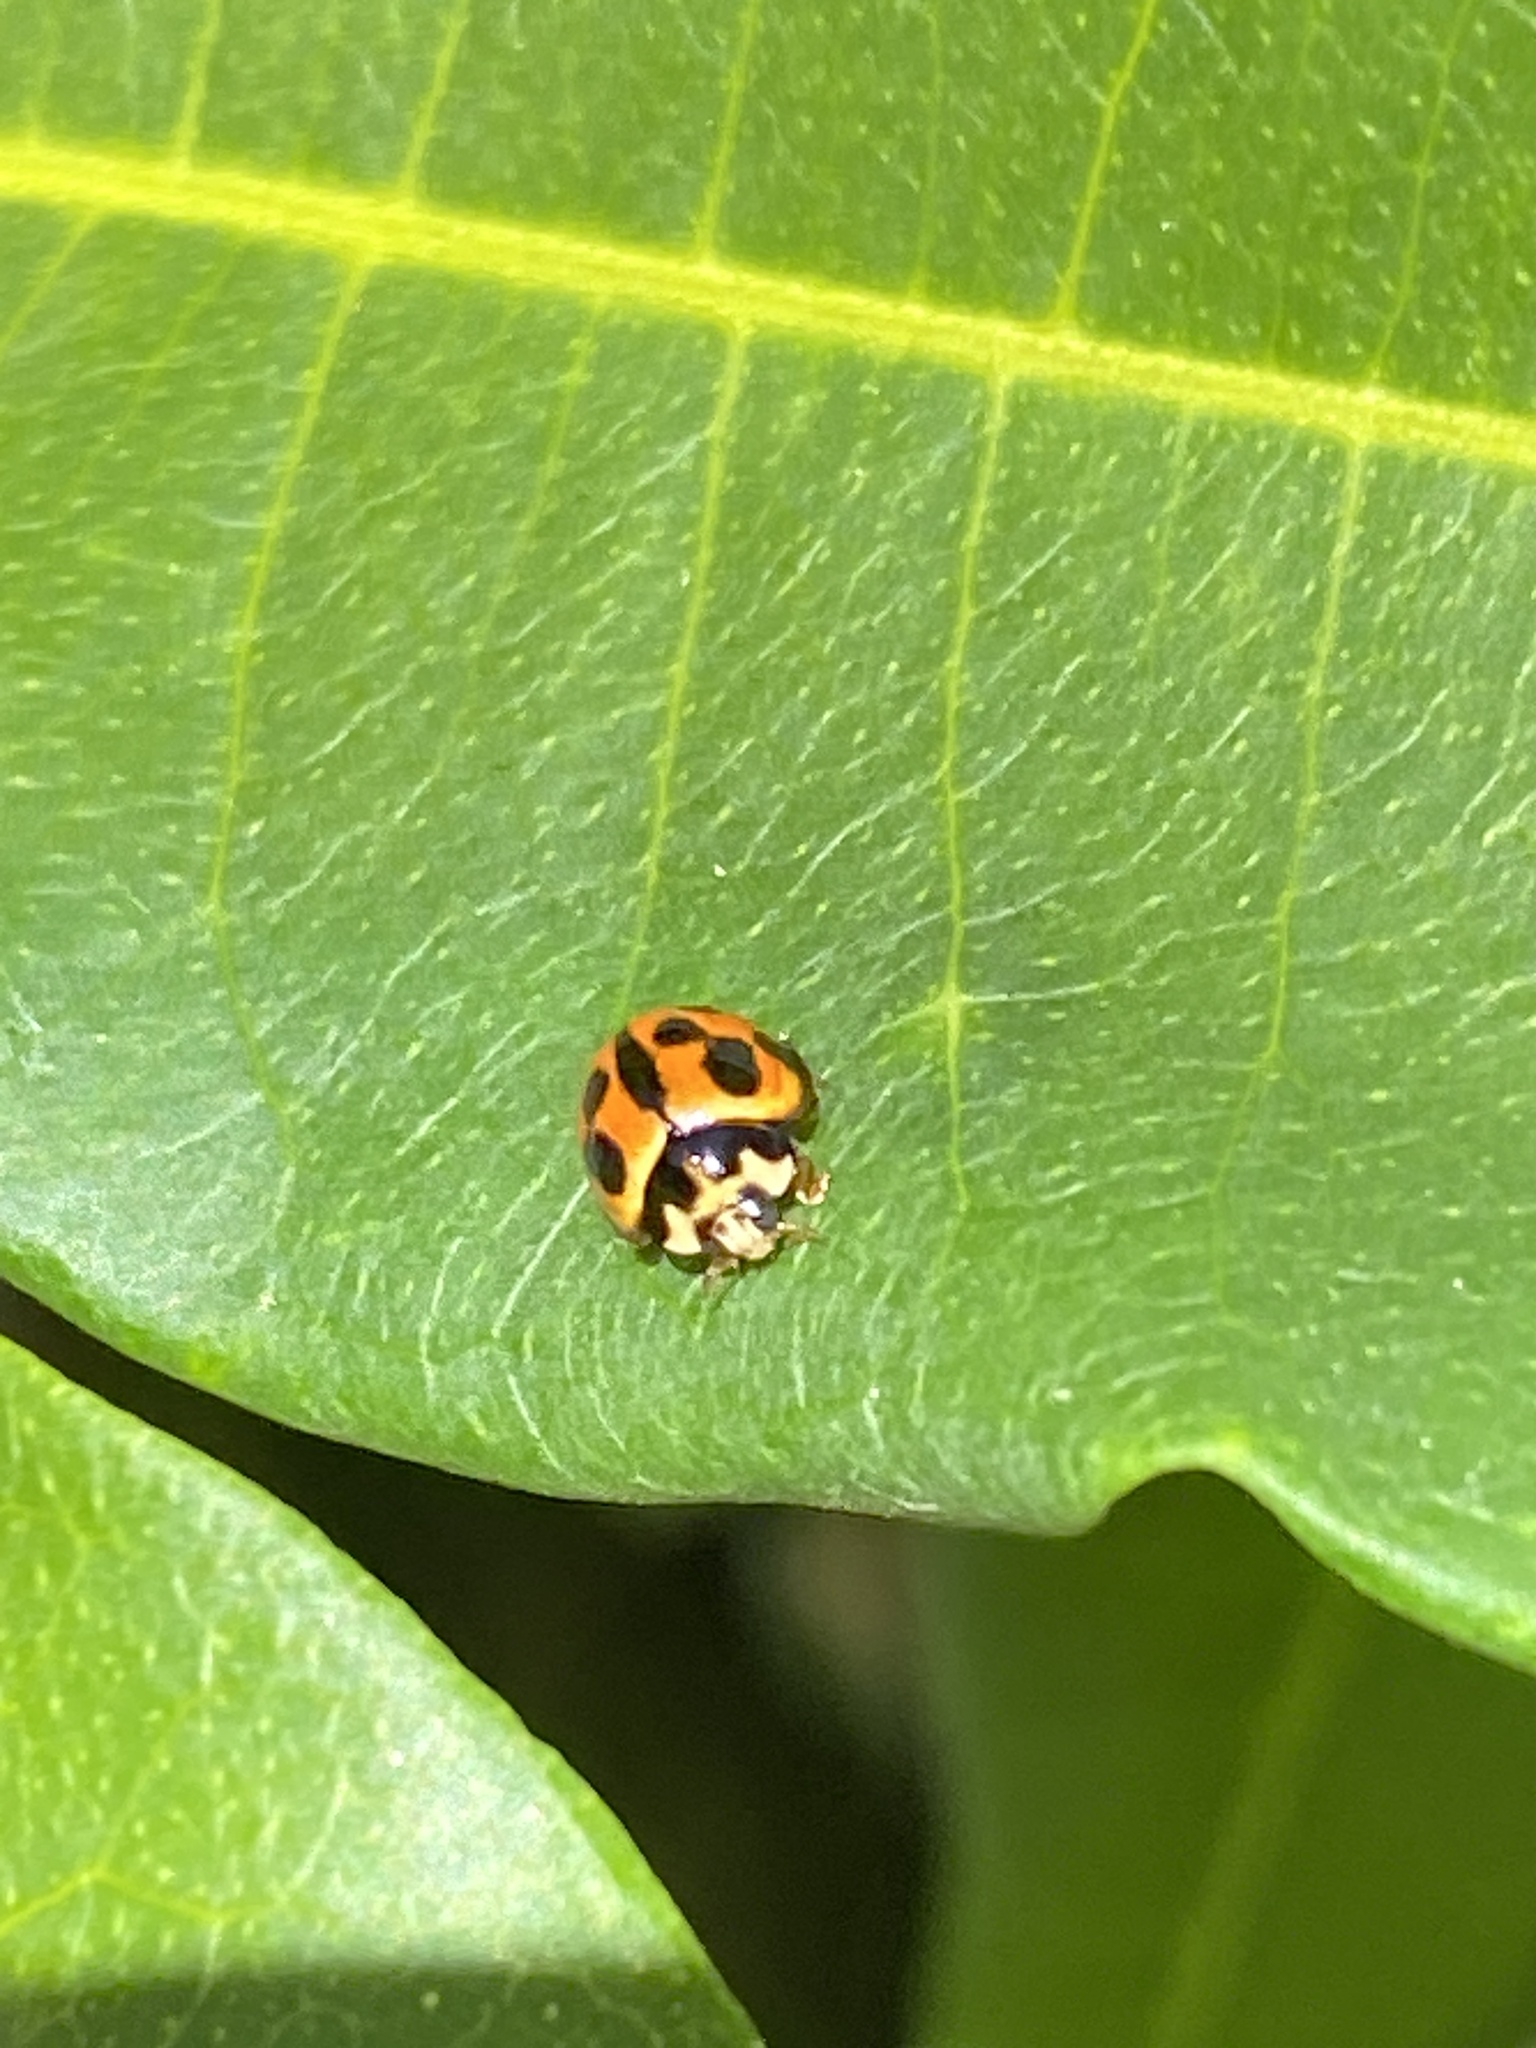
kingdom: Animalia
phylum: Arthropoda
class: Insecta
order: Coleoptera
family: Coccinellidae
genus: Coelophora
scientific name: Coelophora inaequalis
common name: Common australian lady beetle
